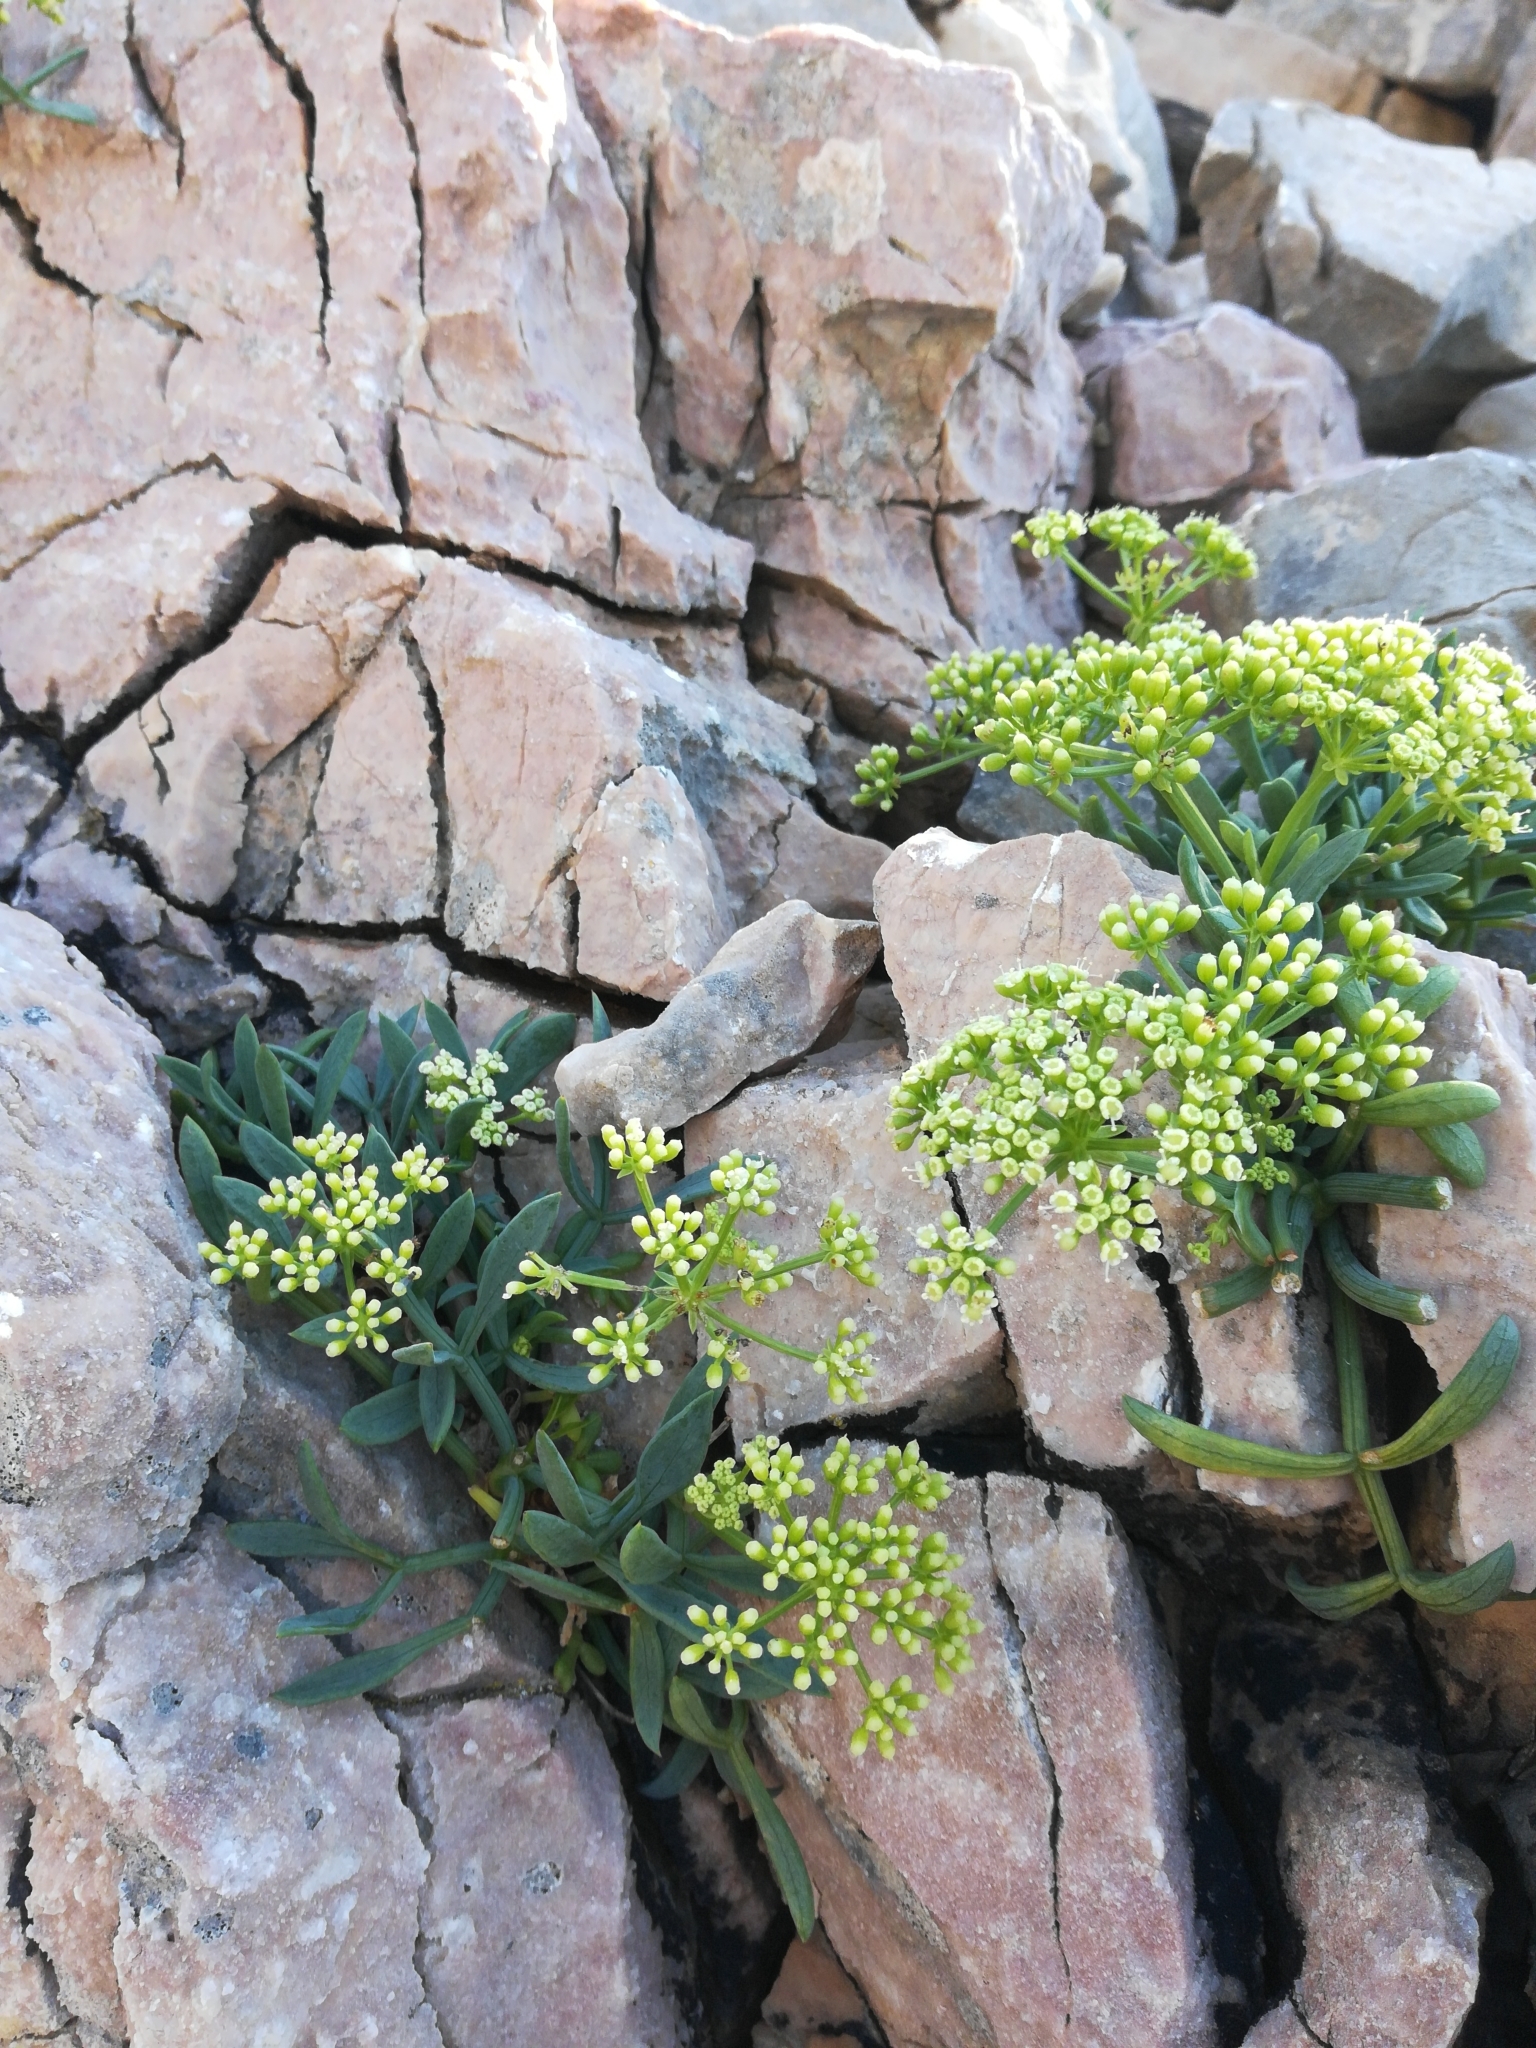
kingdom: Plantae
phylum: Tracheophyta
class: Magnoliopsida
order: Apiales
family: Apiaceae
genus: Crithmum
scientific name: Crithmum maritimum
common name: Rock samphire
